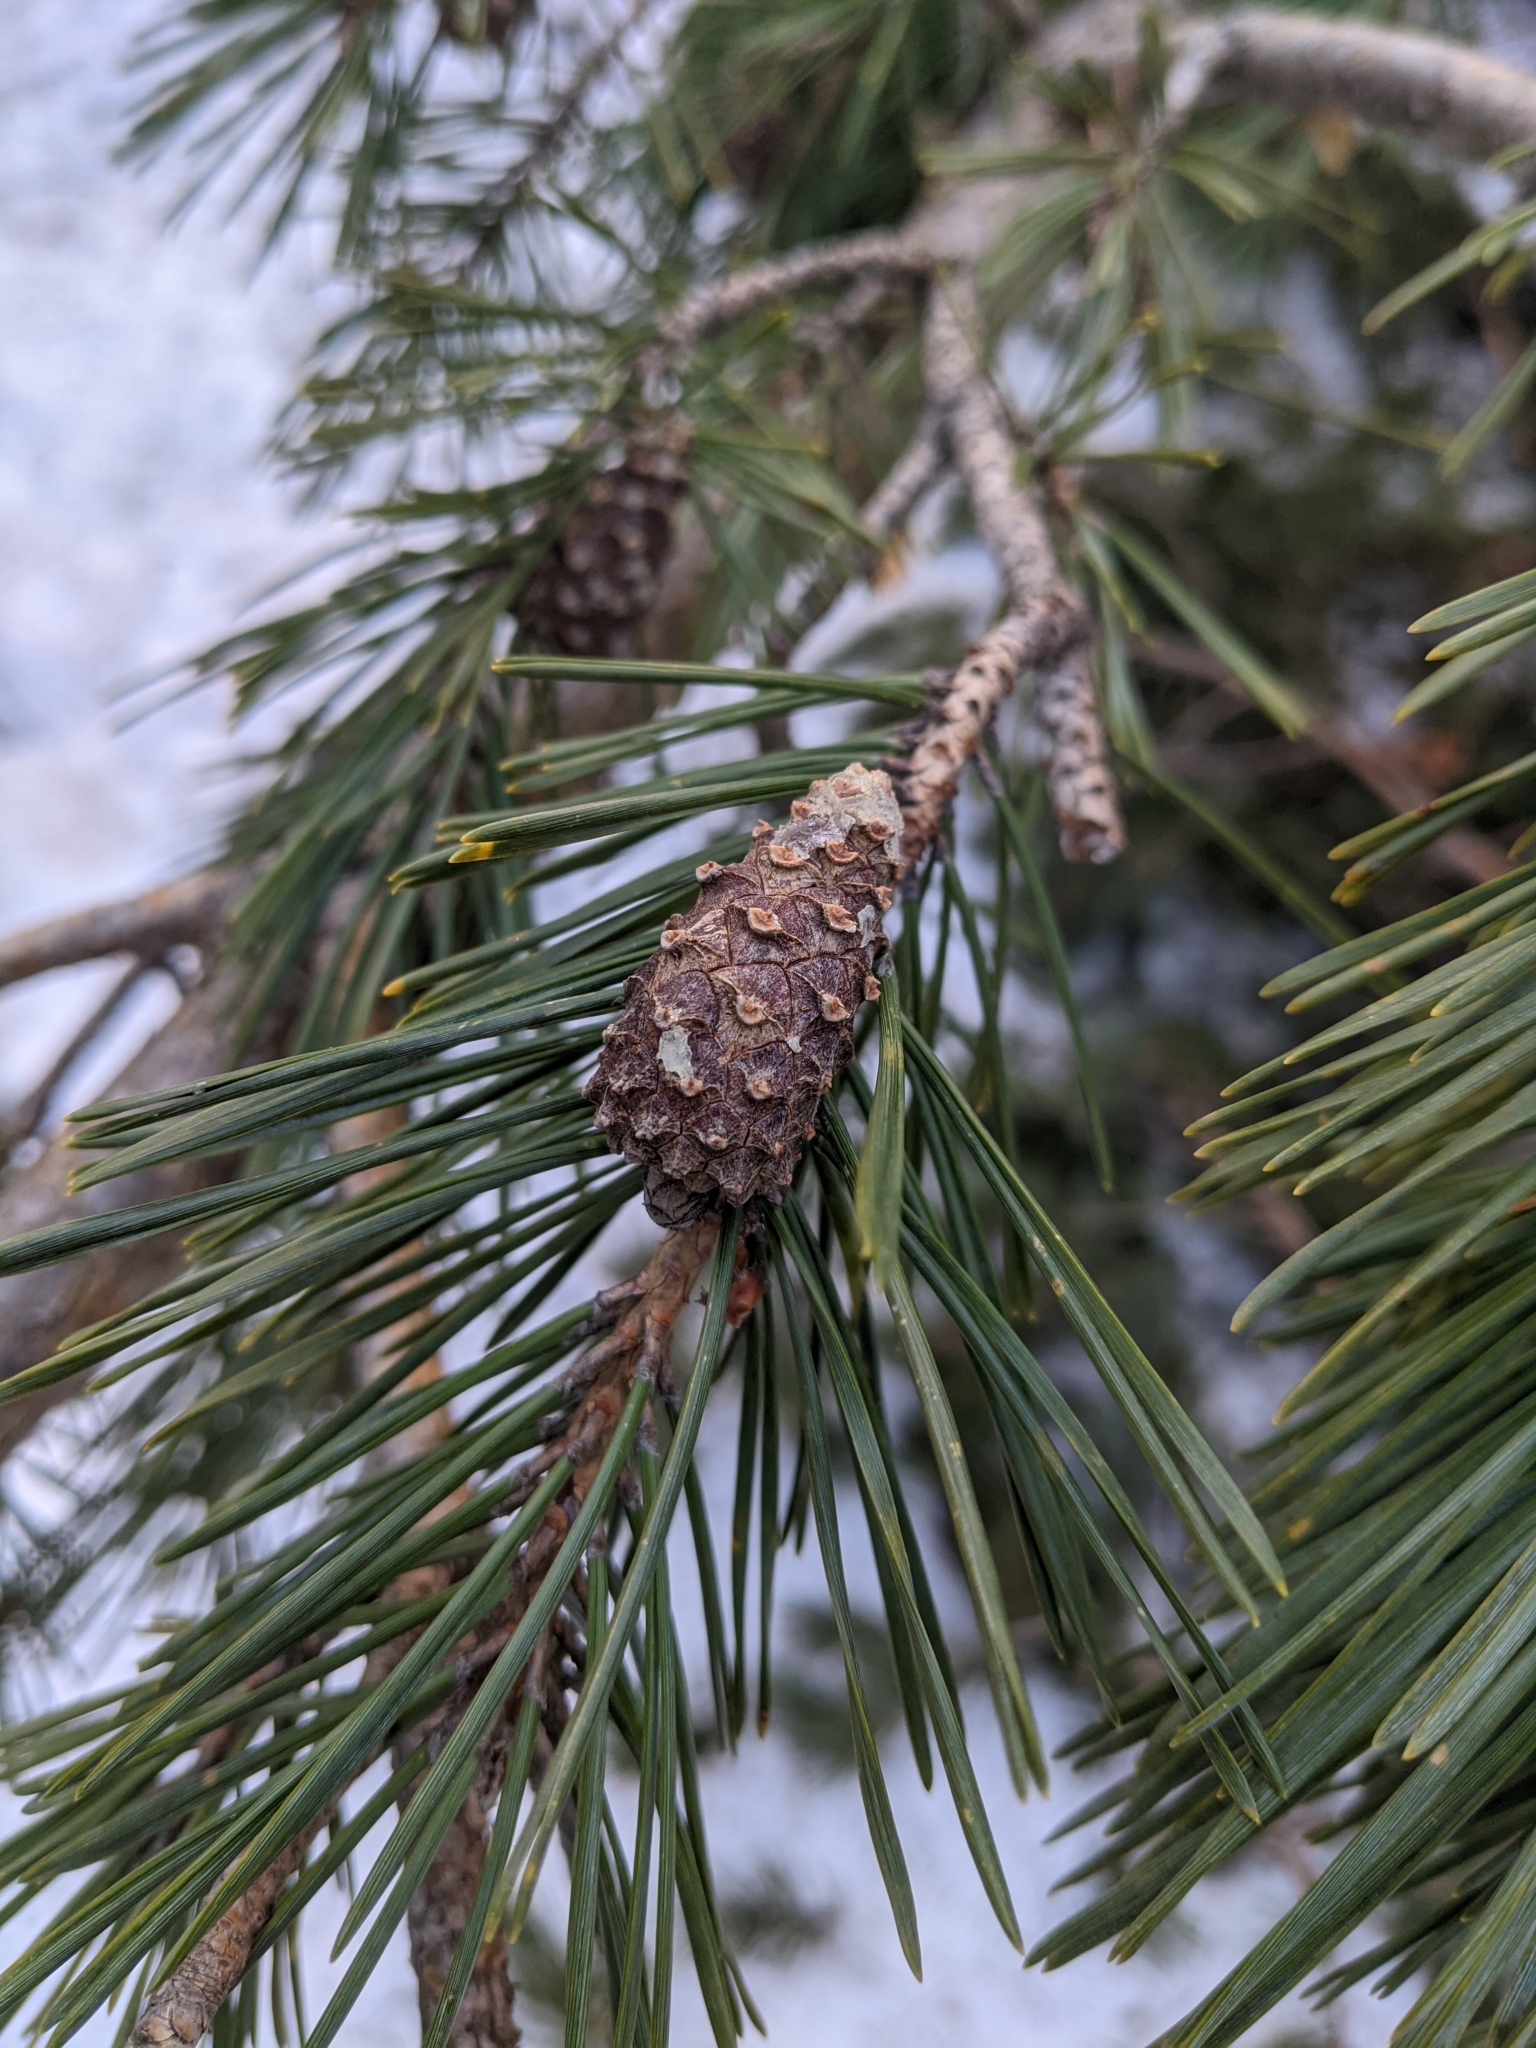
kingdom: Plantae
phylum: Tracheophyta
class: Pinopsida
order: Pinales
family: Pinaceae
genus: Pinus
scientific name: Pinus sylvestris
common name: Scots pine
